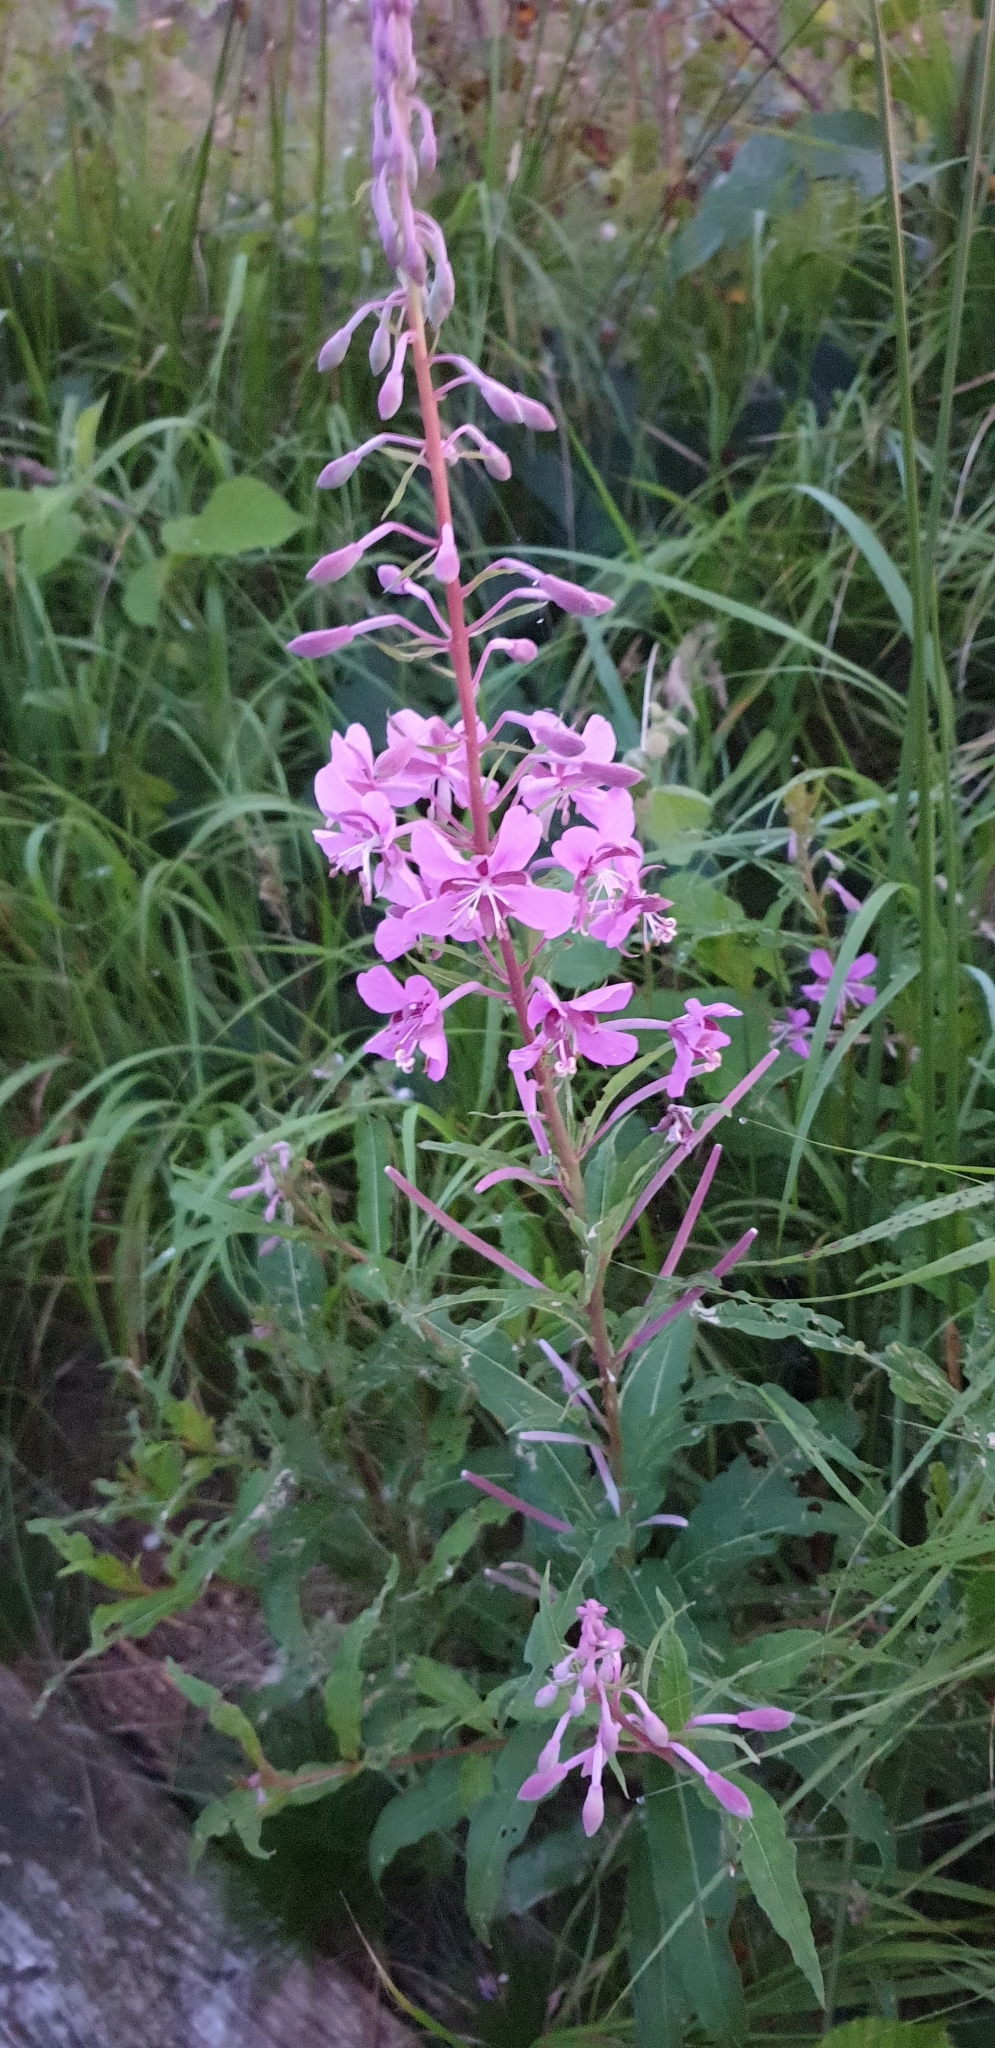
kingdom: Plantae
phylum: Tracheophyta
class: Magnoliopsida
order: Myrtales
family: Onagraceae
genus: Chamaenerion
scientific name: Chamaenerion angustifolium
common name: Fireweed
